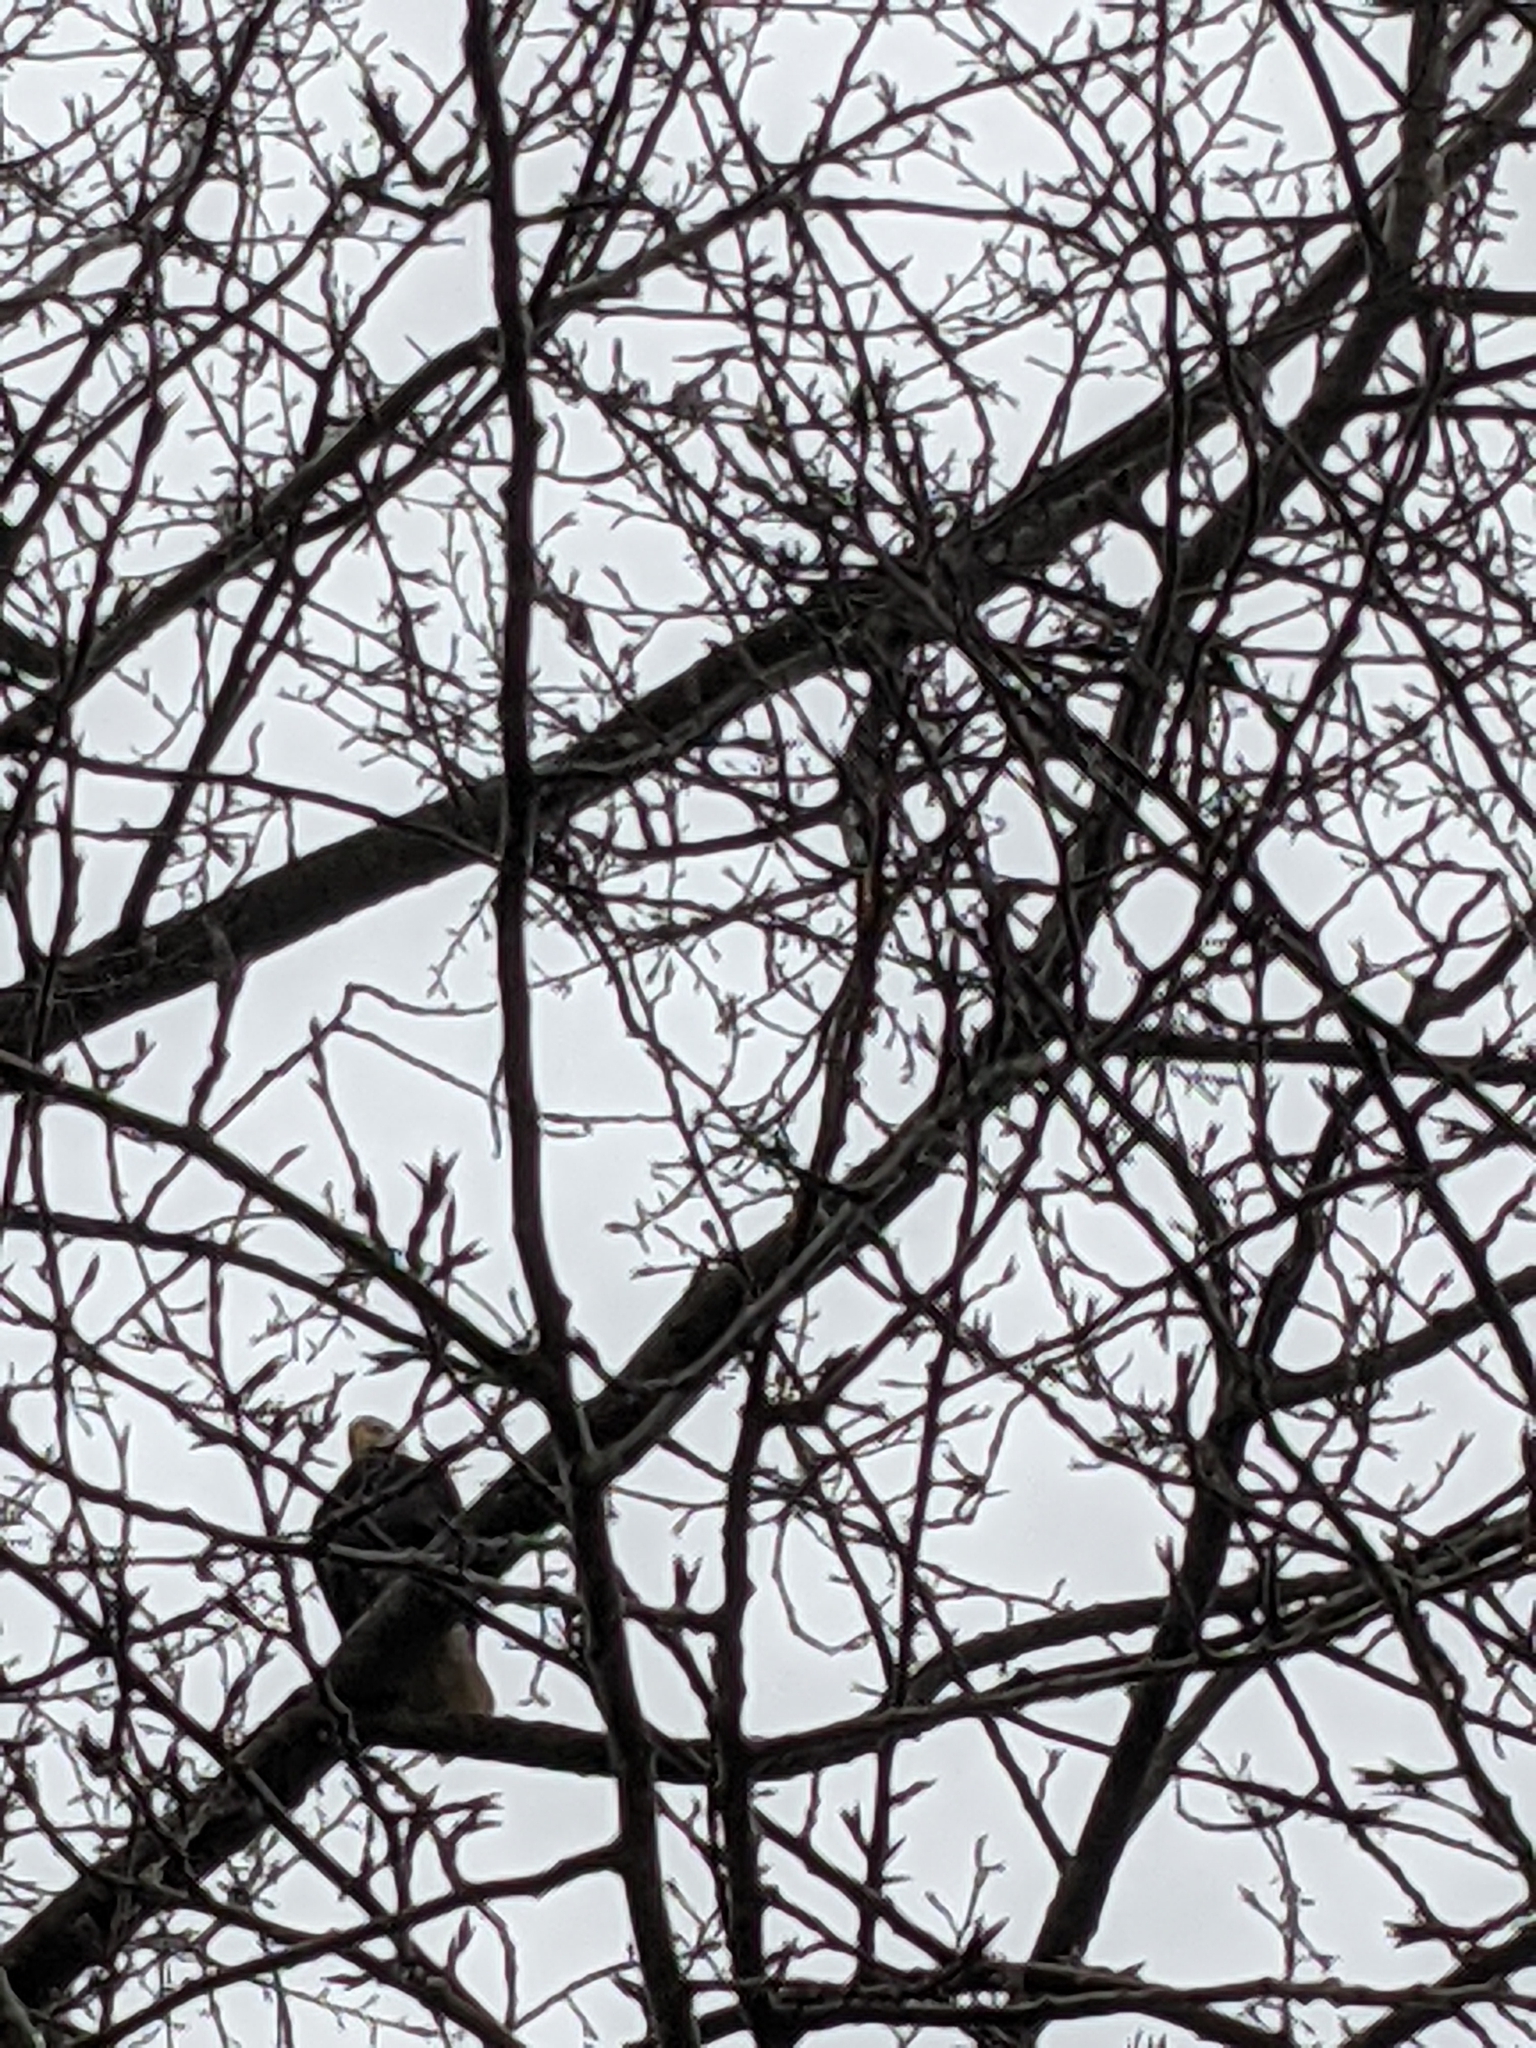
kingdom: Animalia
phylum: Chordata
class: Aves
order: Accipitriformes
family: Accipitridae
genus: Haliaeetus
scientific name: Haliaeetus leucocephalus
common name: Bald eagle
